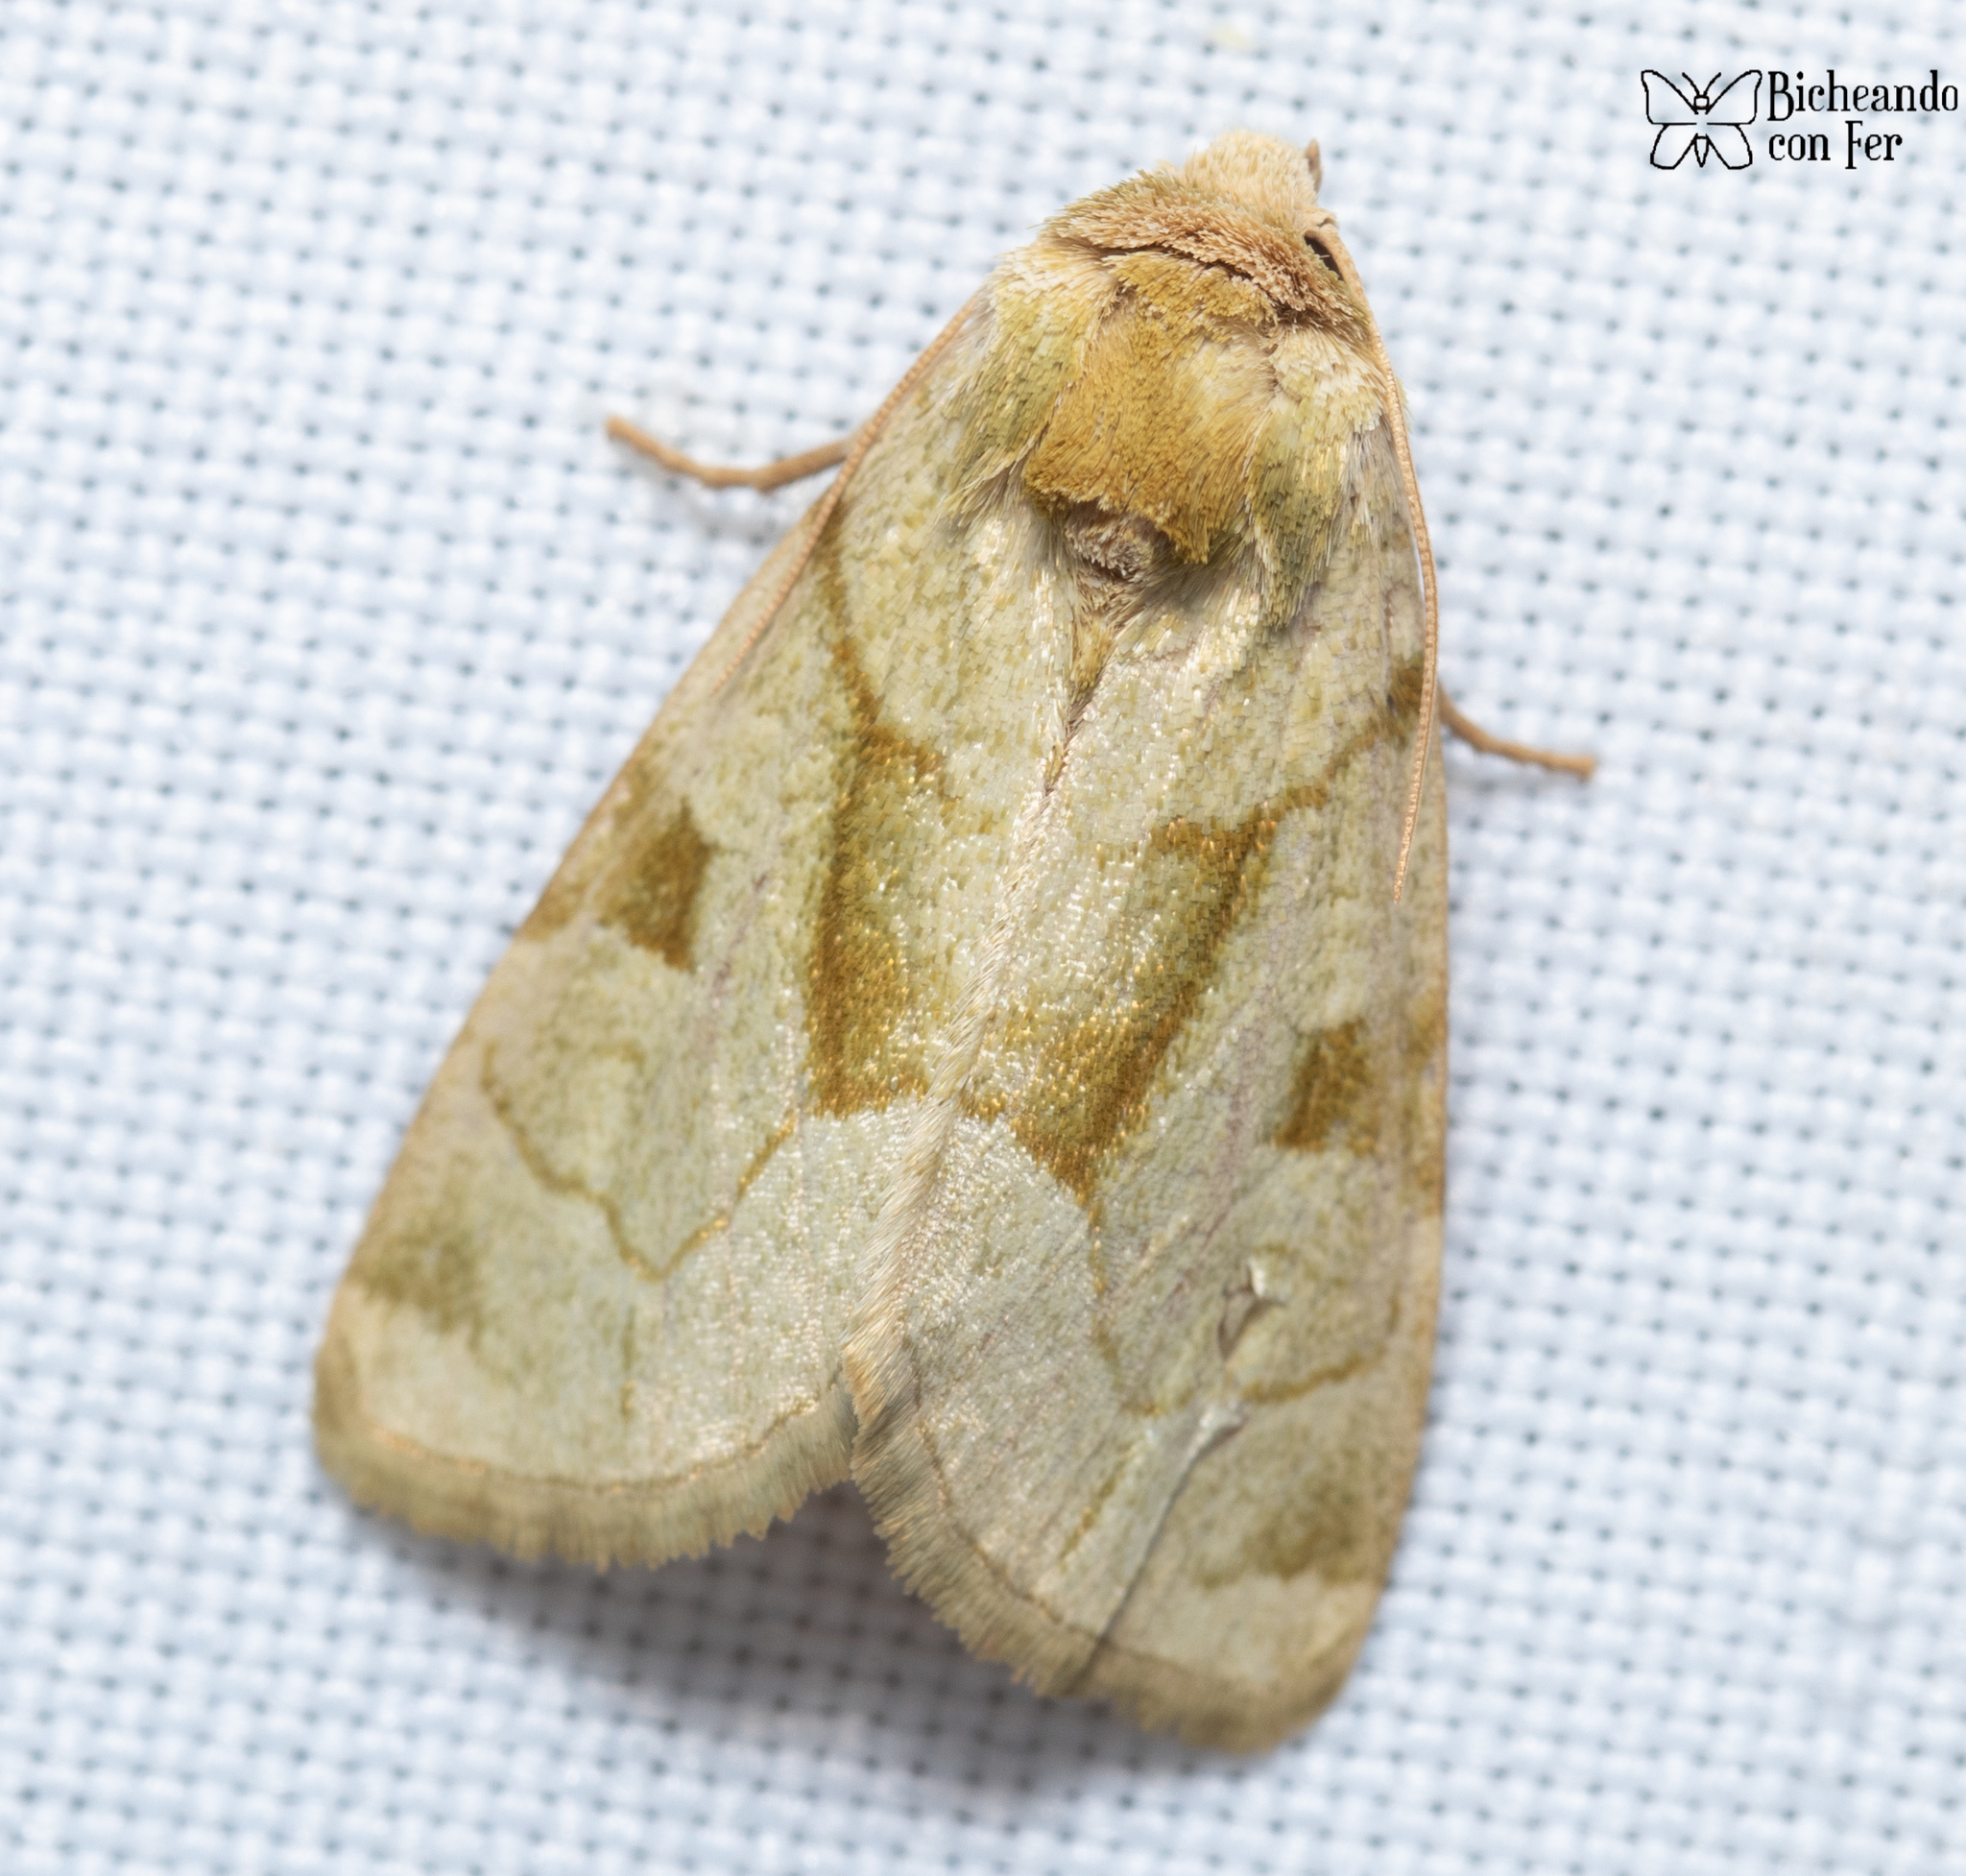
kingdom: Animalia
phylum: Arthropoda
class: Insecta
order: Lepidoptera
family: Noctuidae
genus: Oslaria
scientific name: Oslaria viridifera
